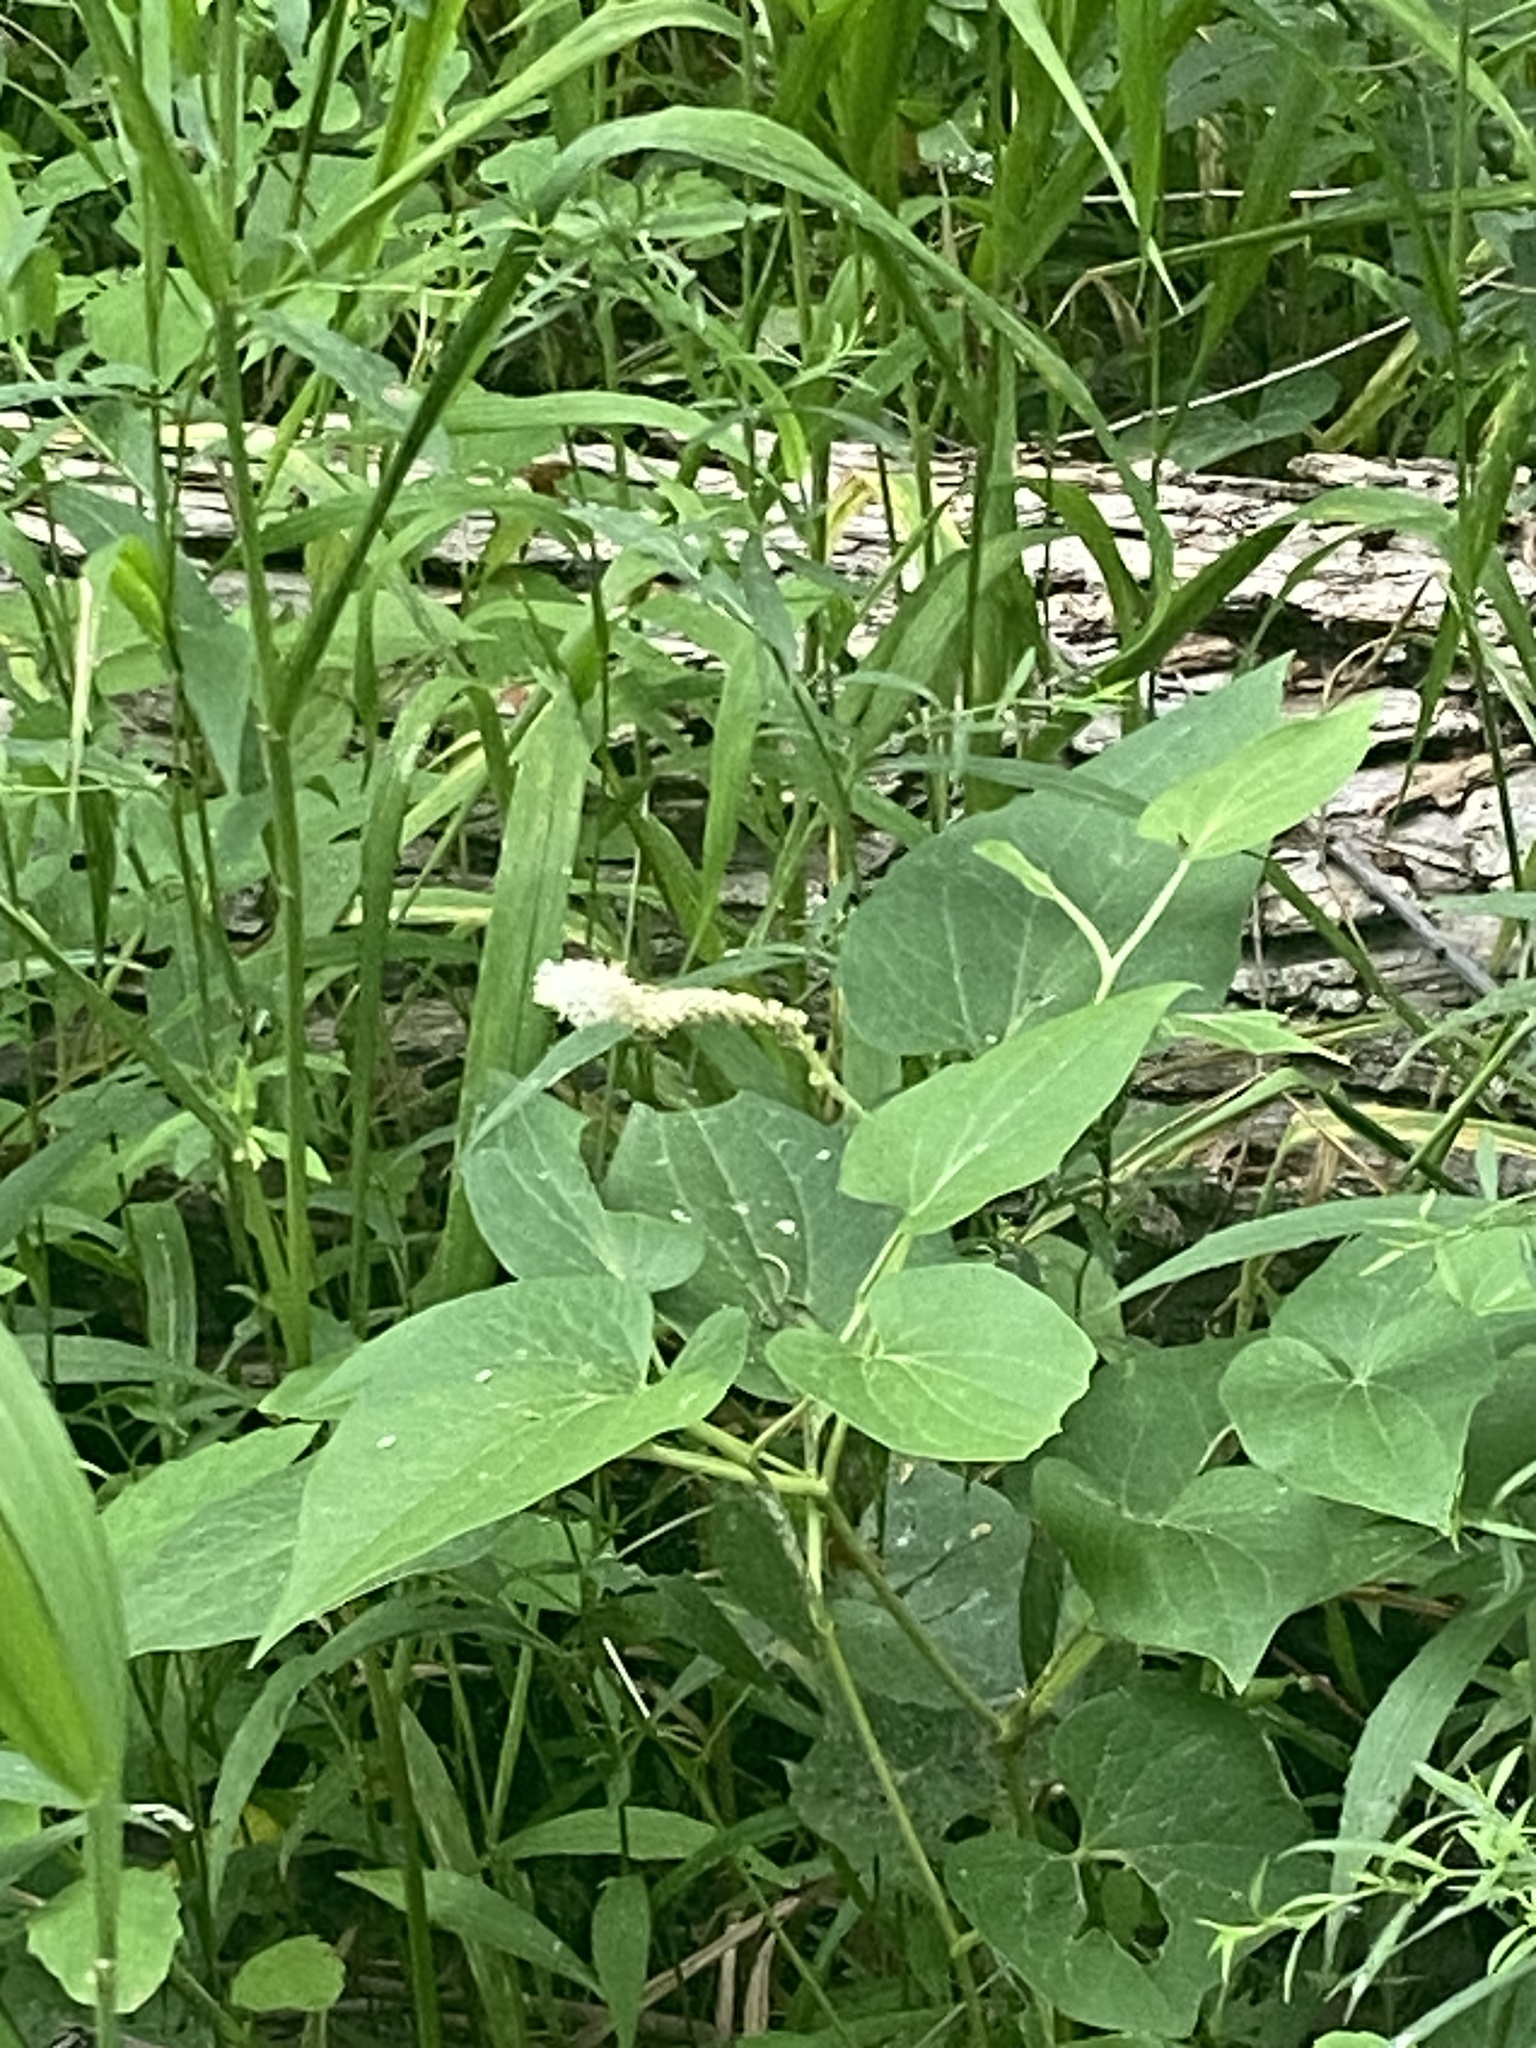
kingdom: Plantae
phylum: Tracheophyta
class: Magnoliopsida
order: Piperales
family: Saururaceae
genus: Saururus
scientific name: Saururus cernuus
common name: Lizard's-tail
